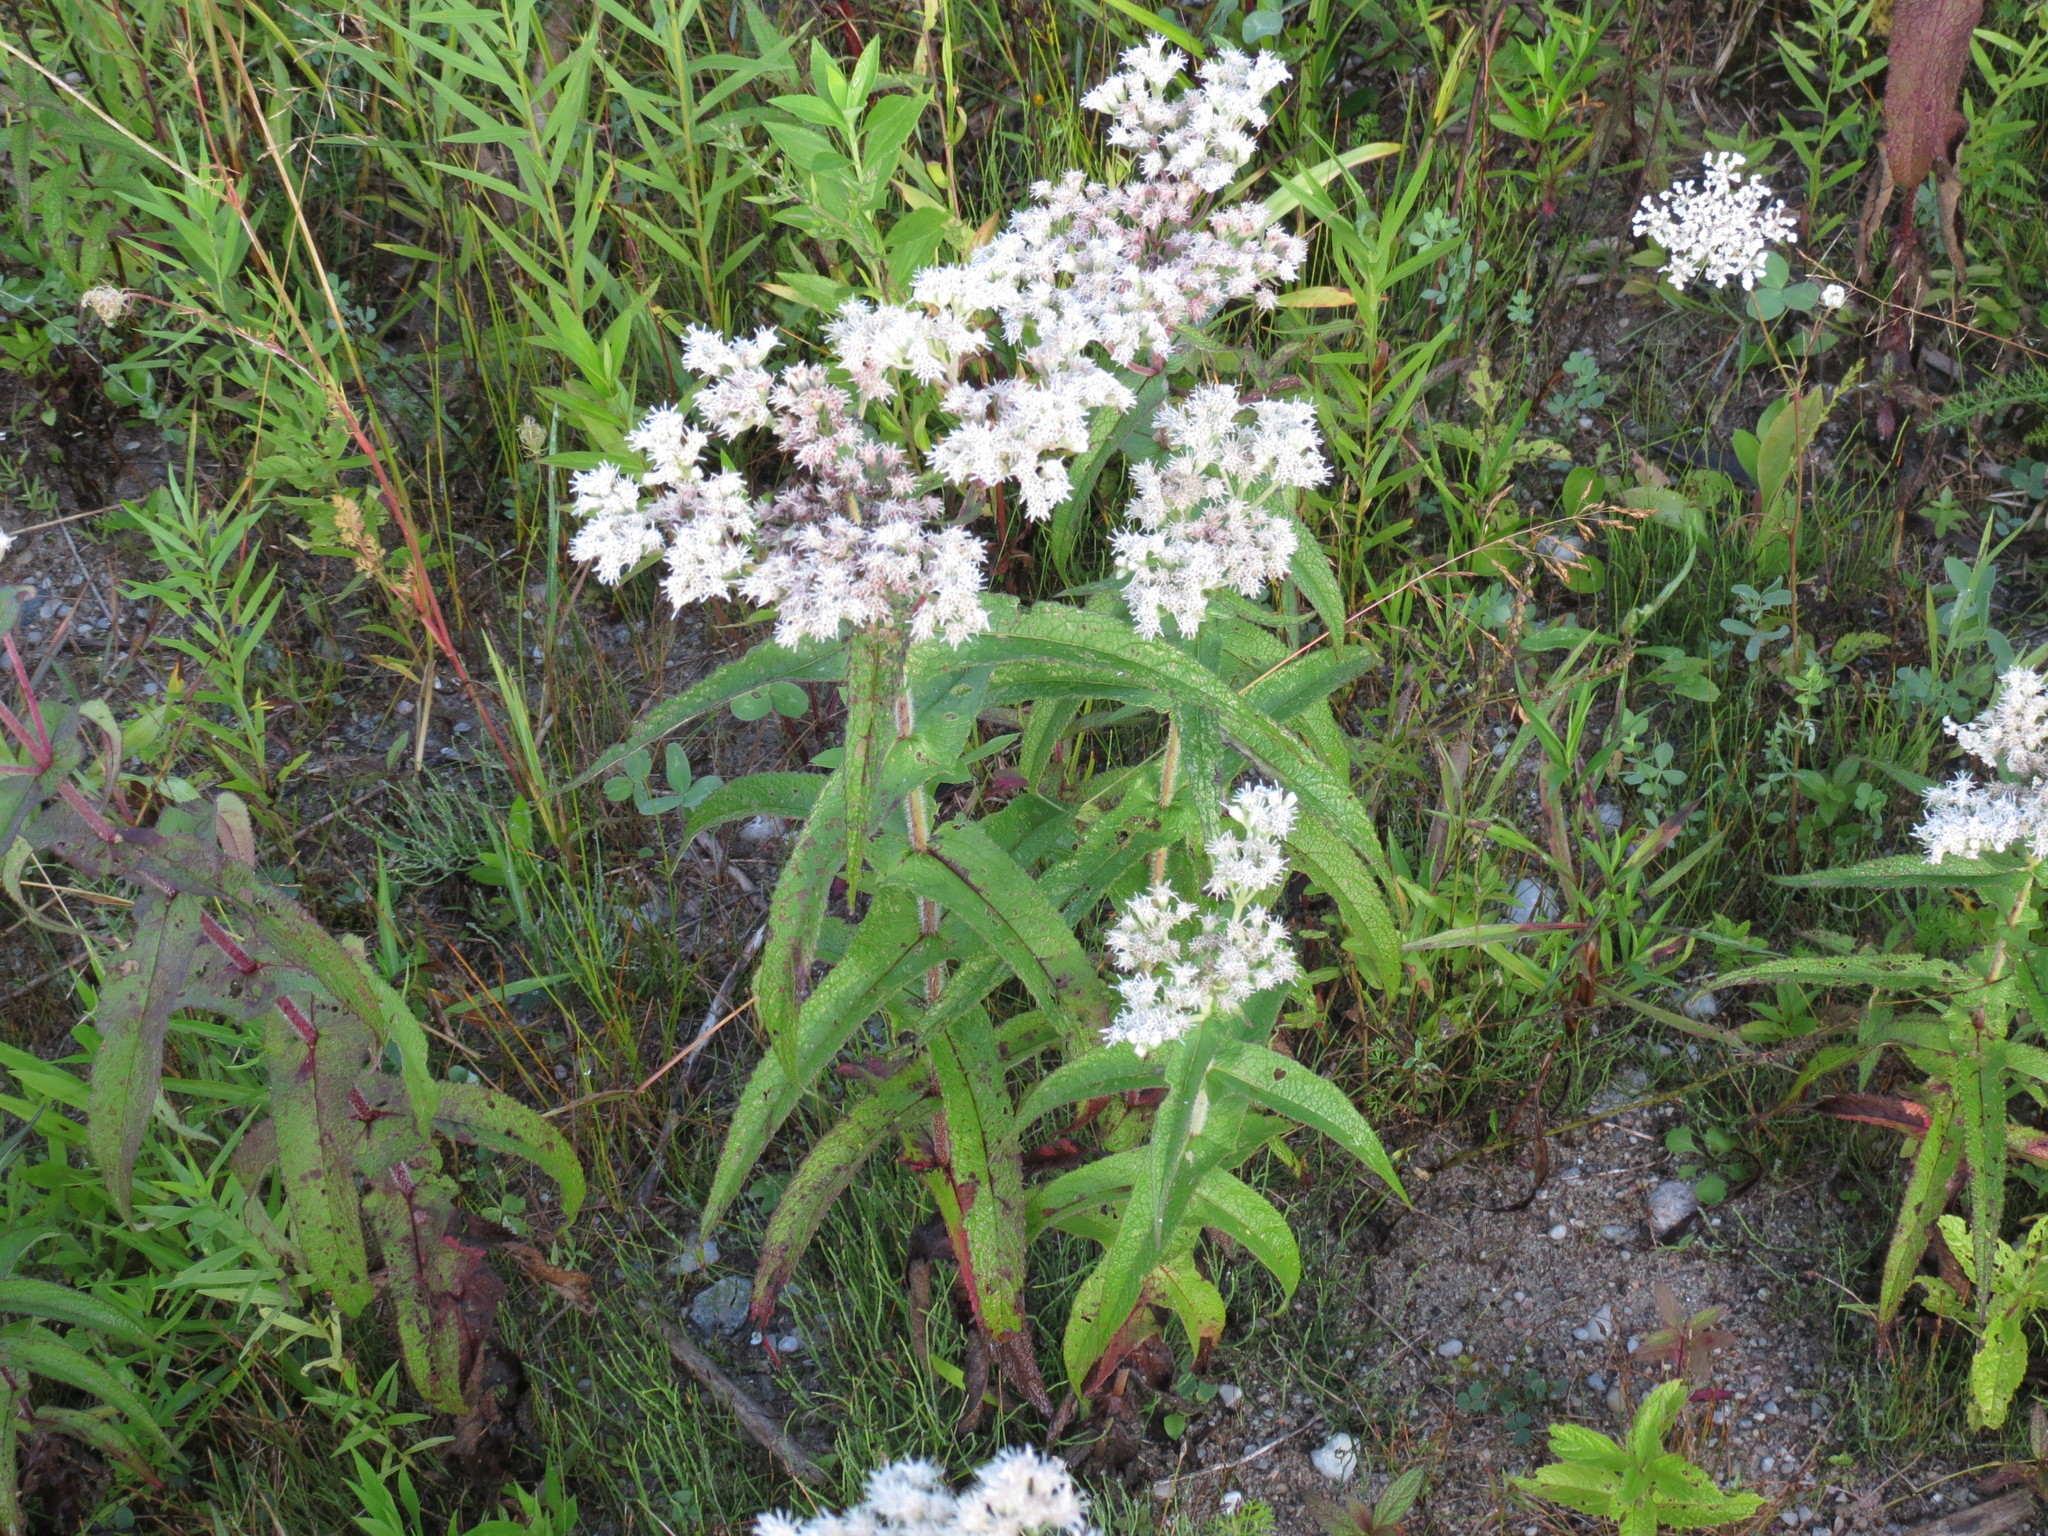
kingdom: Plantae
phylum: Tracheophyta
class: Magnoliopsida
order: Asterales
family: Asteraceae
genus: Eupatorium
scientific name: Eupatorium perfoliatum
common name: Boneset
